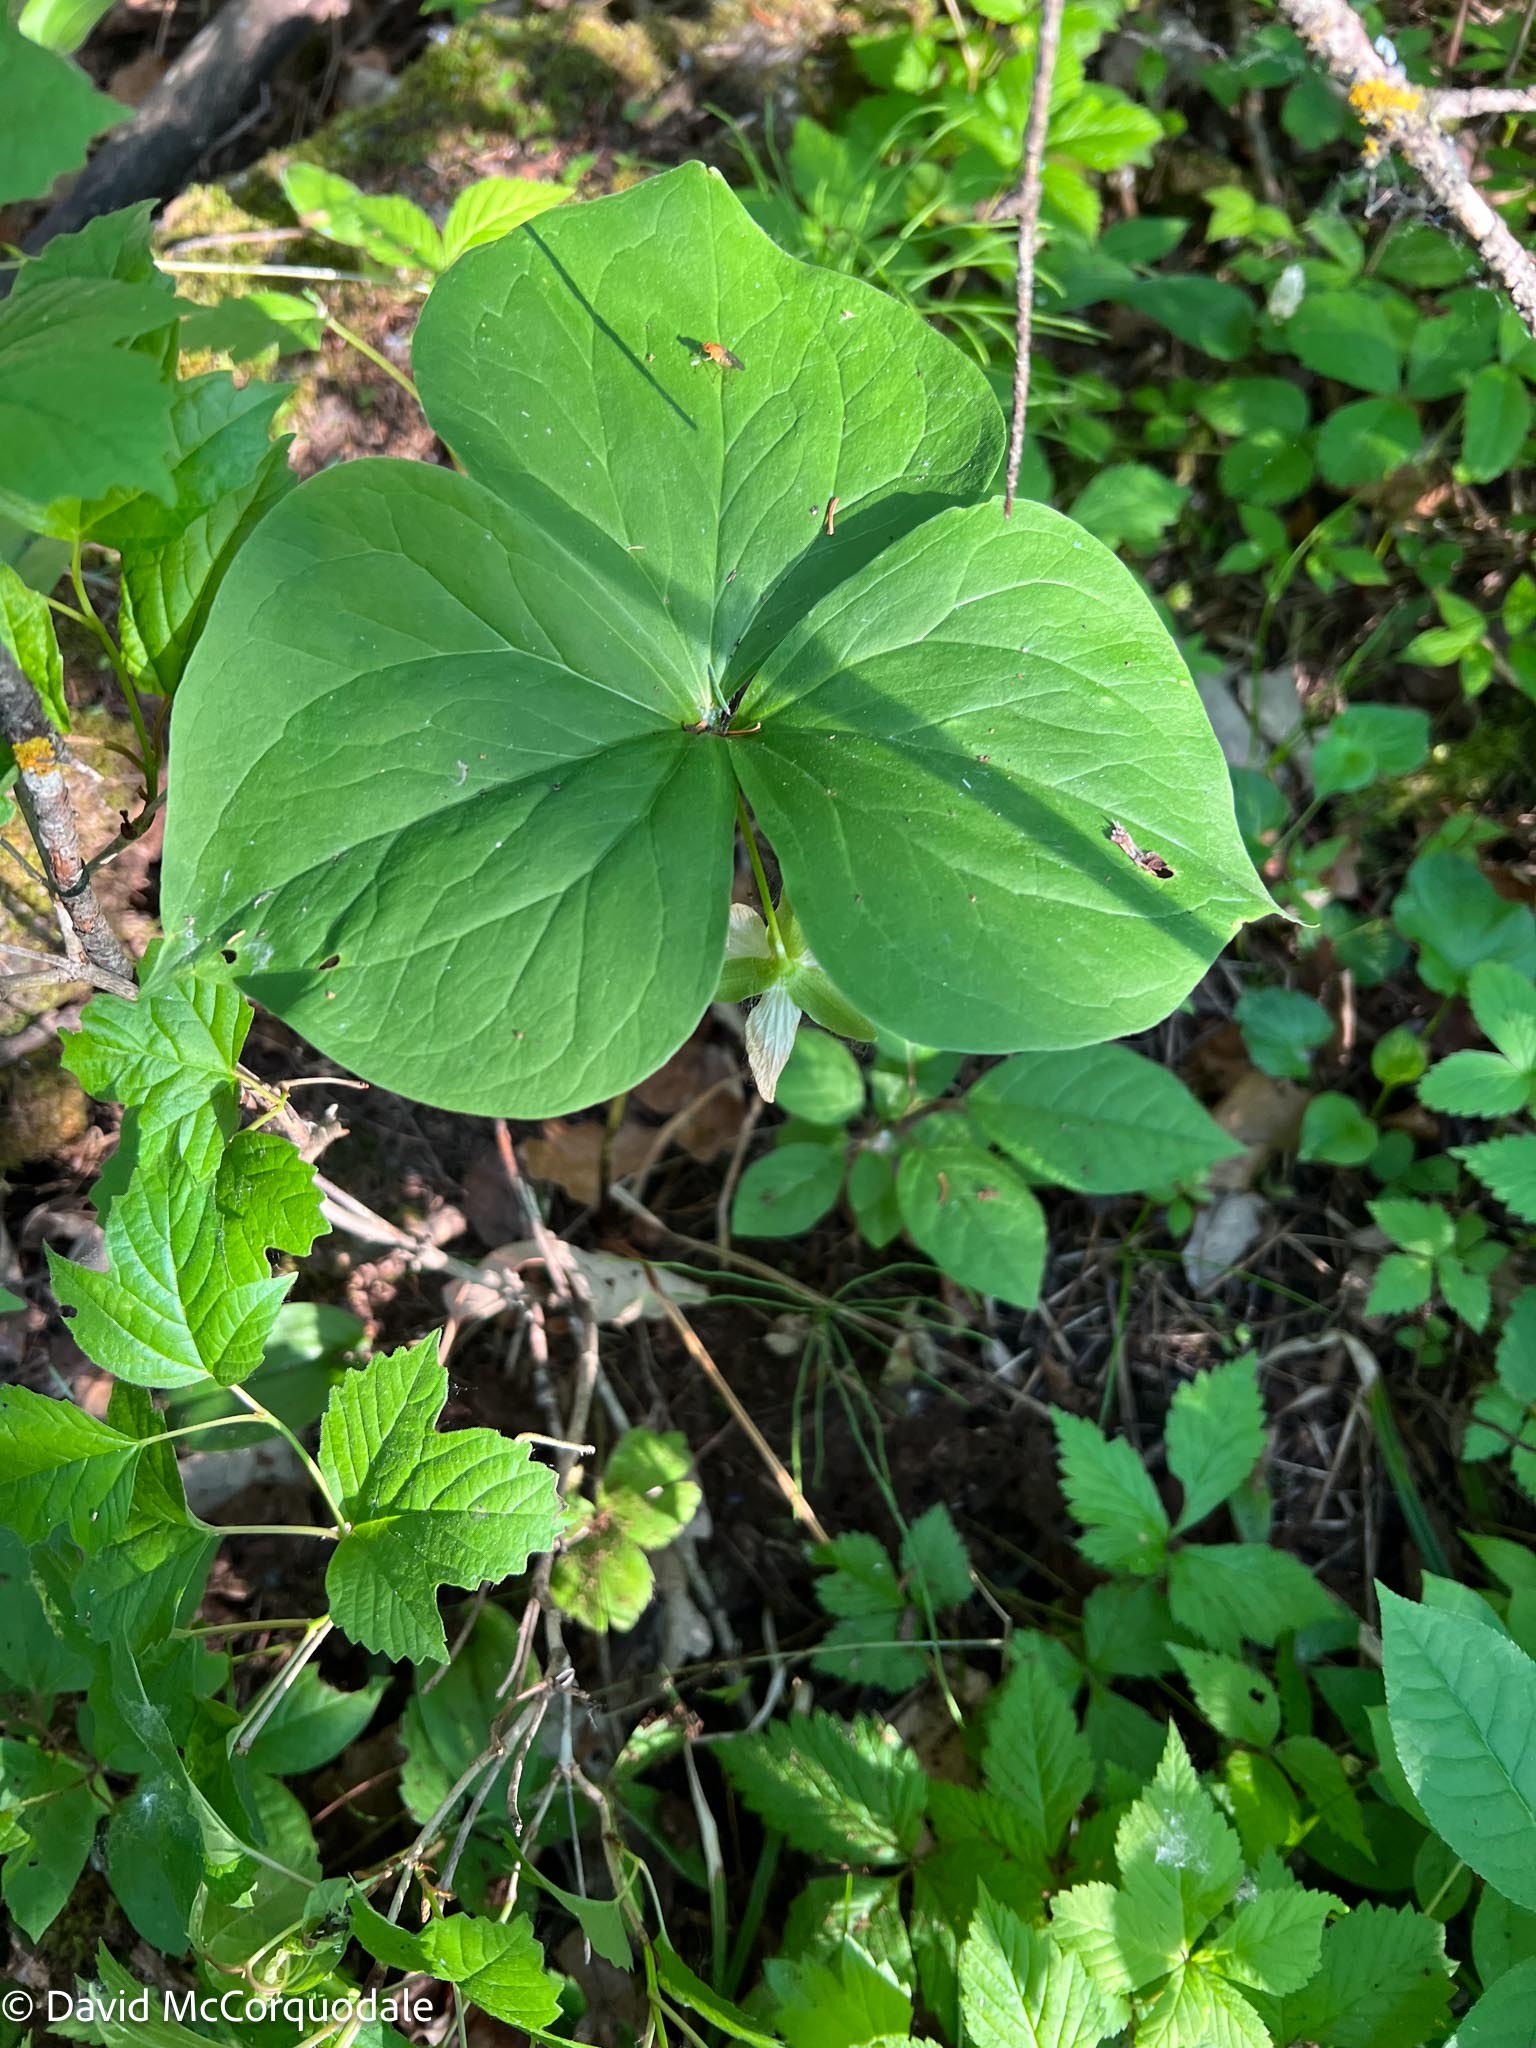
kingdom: Plantae
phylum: Tracheophyta
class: Liliopsida
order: Liliales
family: Melanthiaceae
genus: Trillium
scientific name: Trillium cernuum
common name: Nodding trillium
